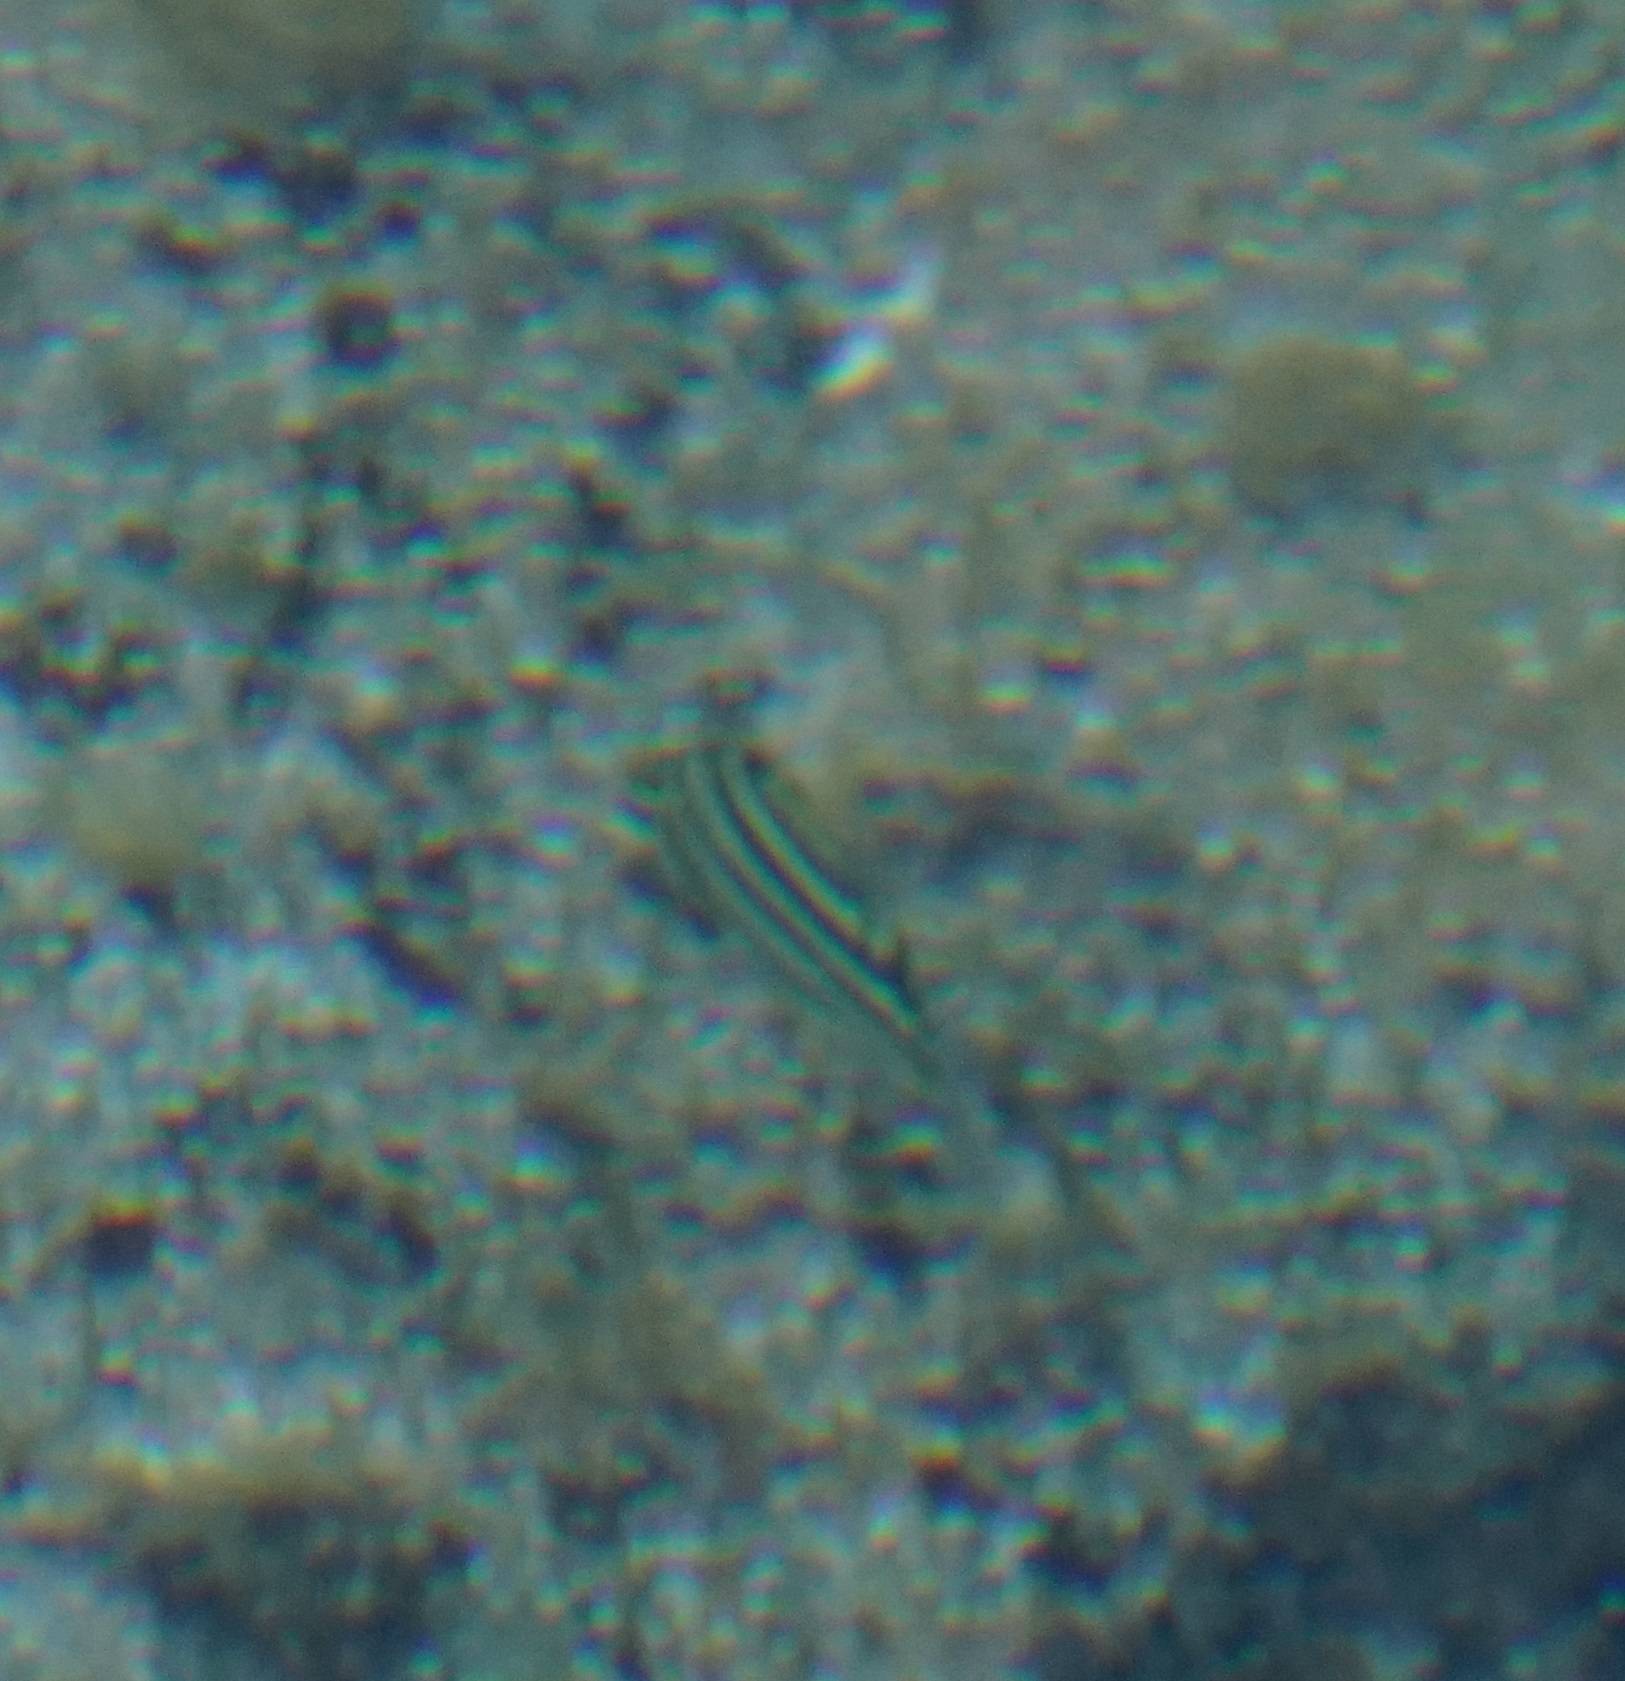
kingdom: Animalia
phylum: Chordata
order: Perciformes
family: Kyphosidae
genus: Microcanthus
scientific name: Microcanthus joyceae
